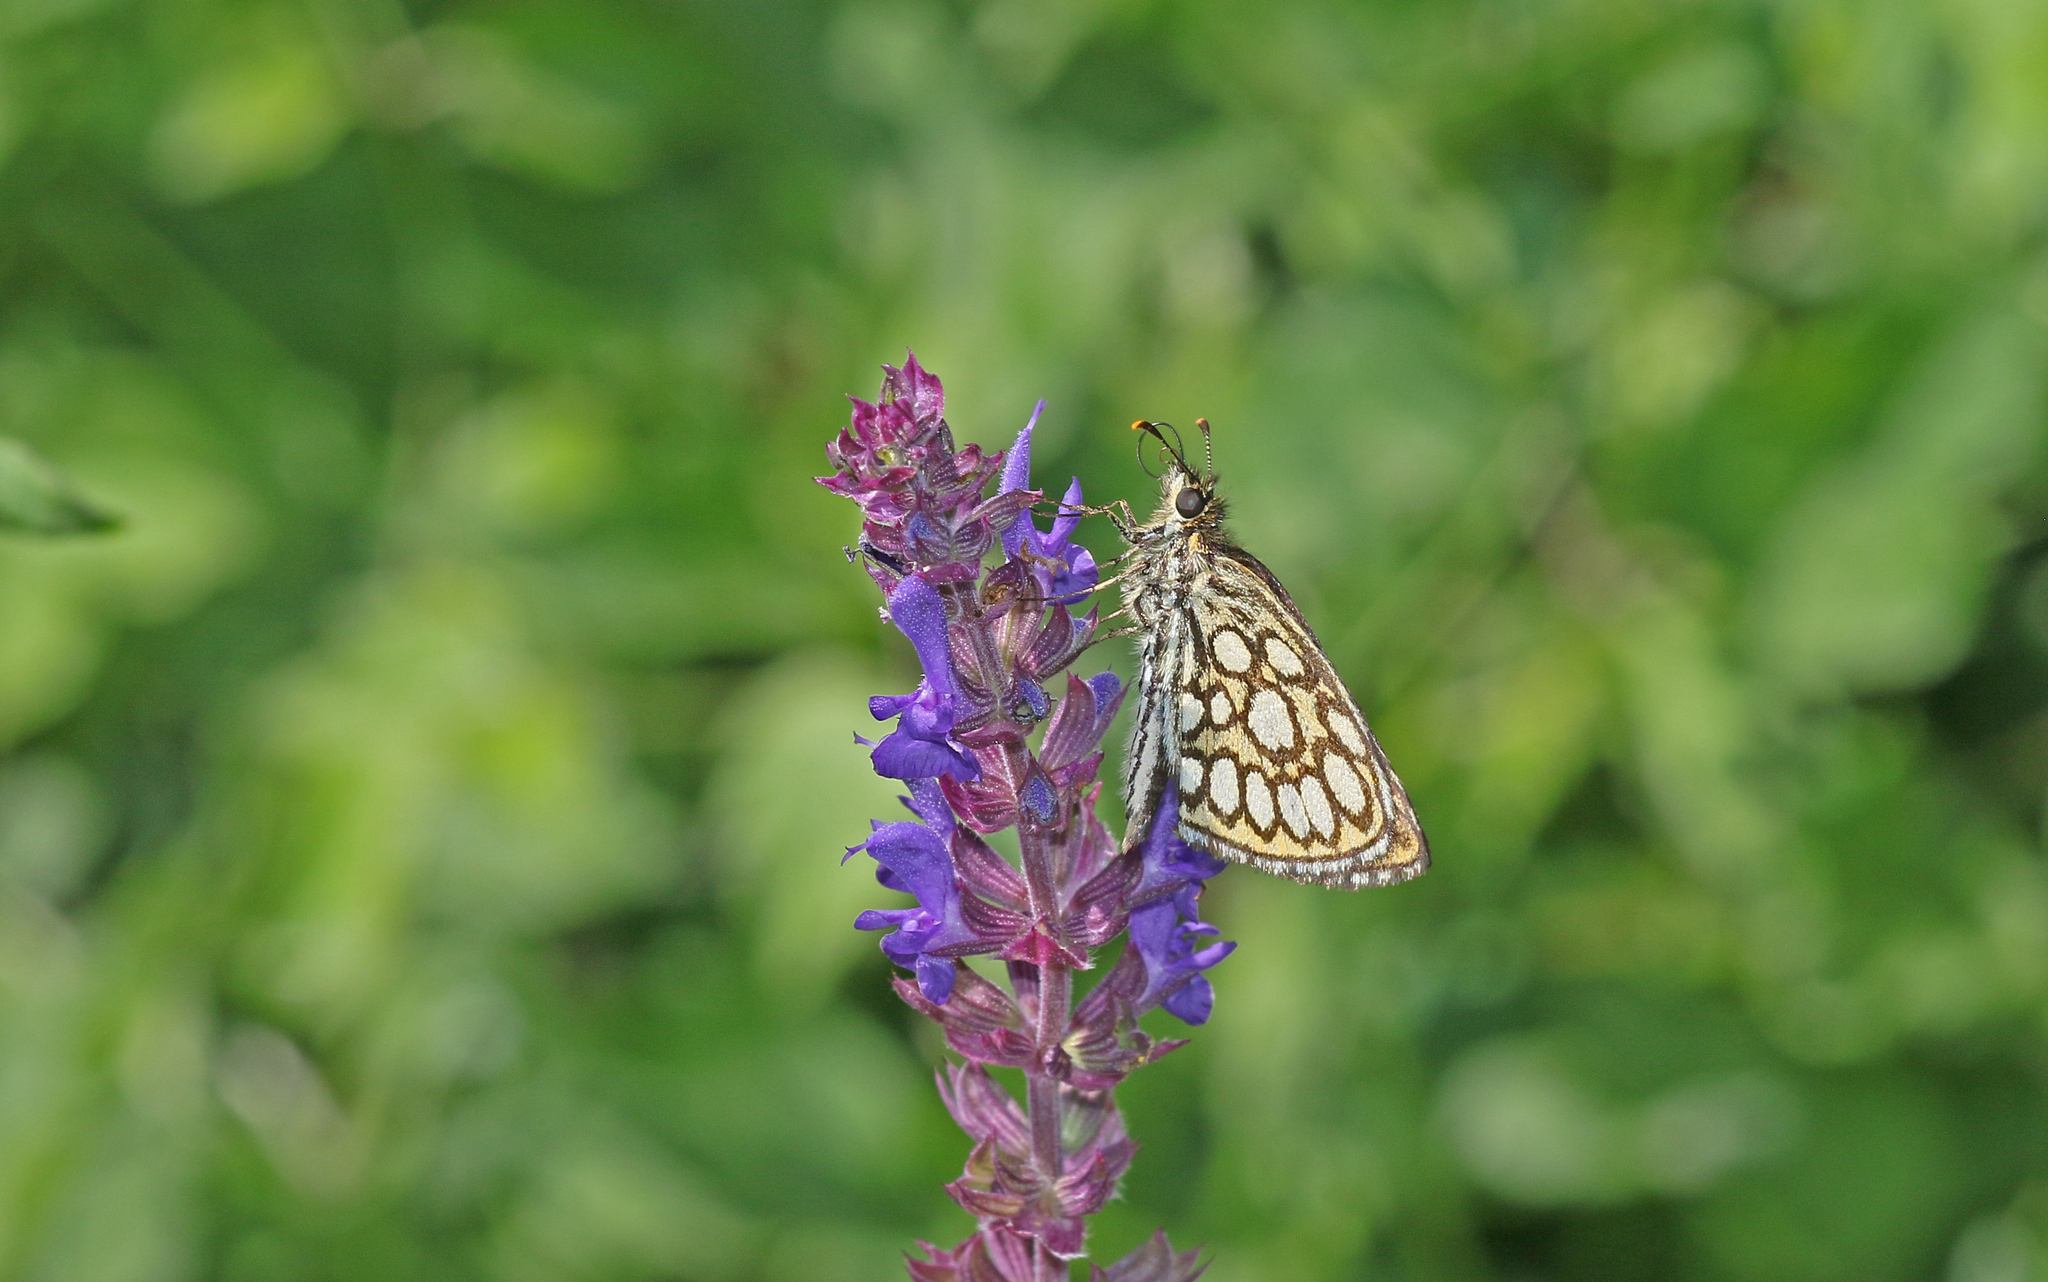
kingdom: Animalia
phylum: Arthropoda
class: Insecta
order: Lepidoptera
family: Hesperiidae
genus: Heteropterus
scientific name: Heteropterus morpheus
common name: Large chequered skipper
